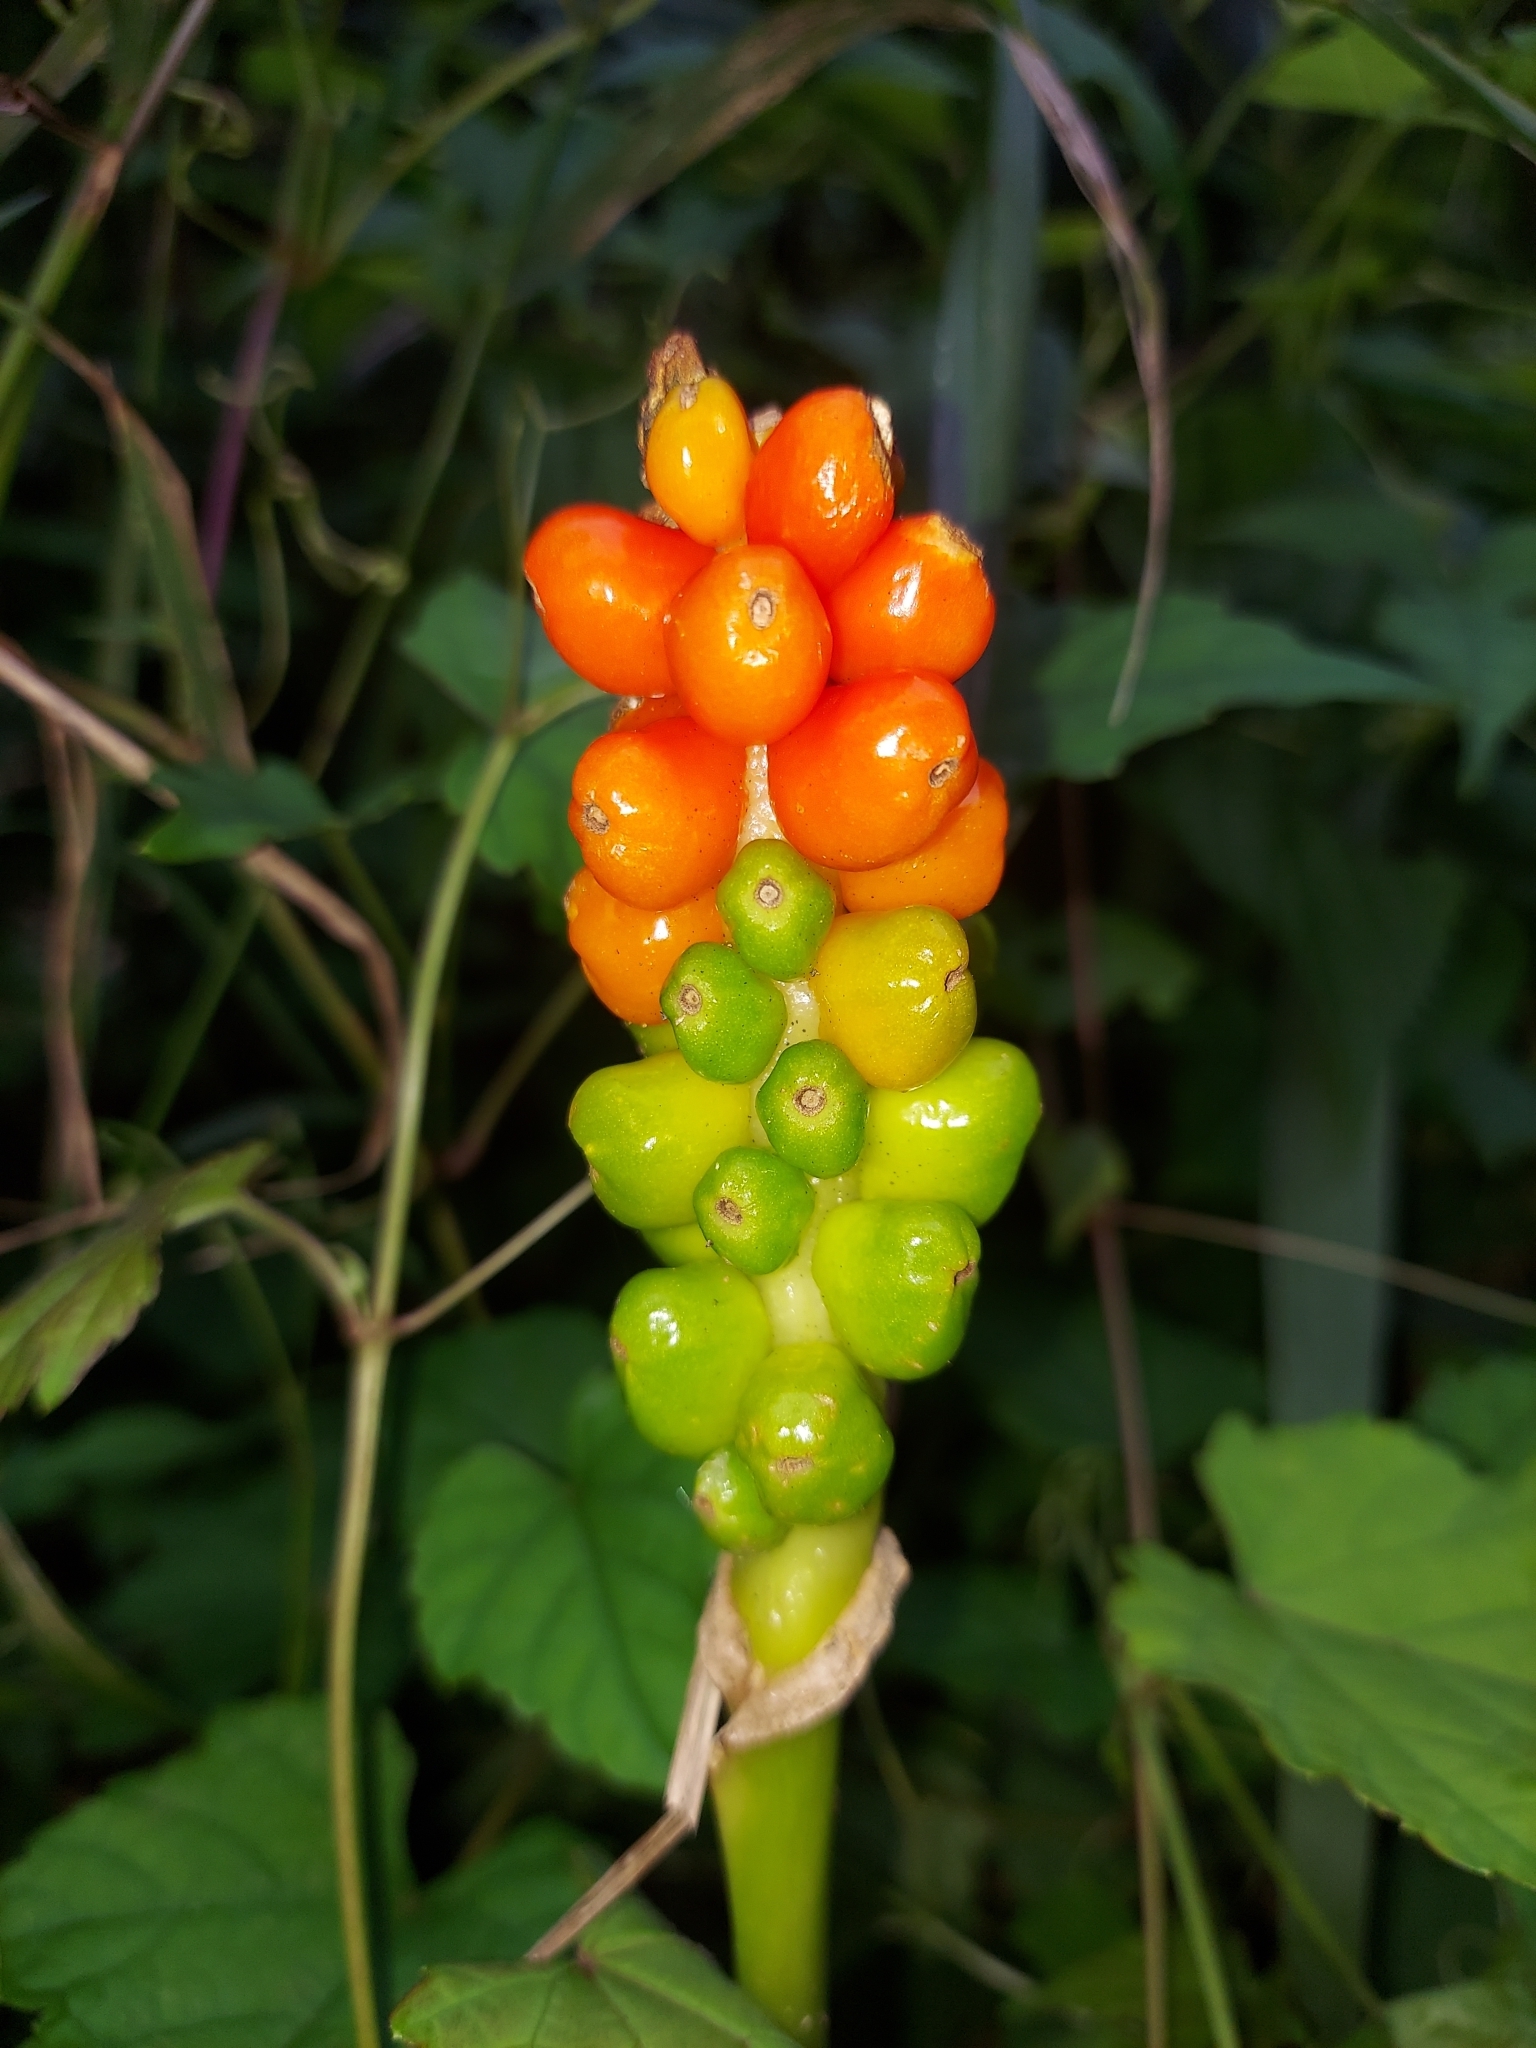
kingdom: Plantae
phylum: Tracheophyta
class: Liliopsida
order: Alismatales
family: Araceae
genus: Arum
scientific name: Arum italicum
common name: Italian lords-and-ladies
